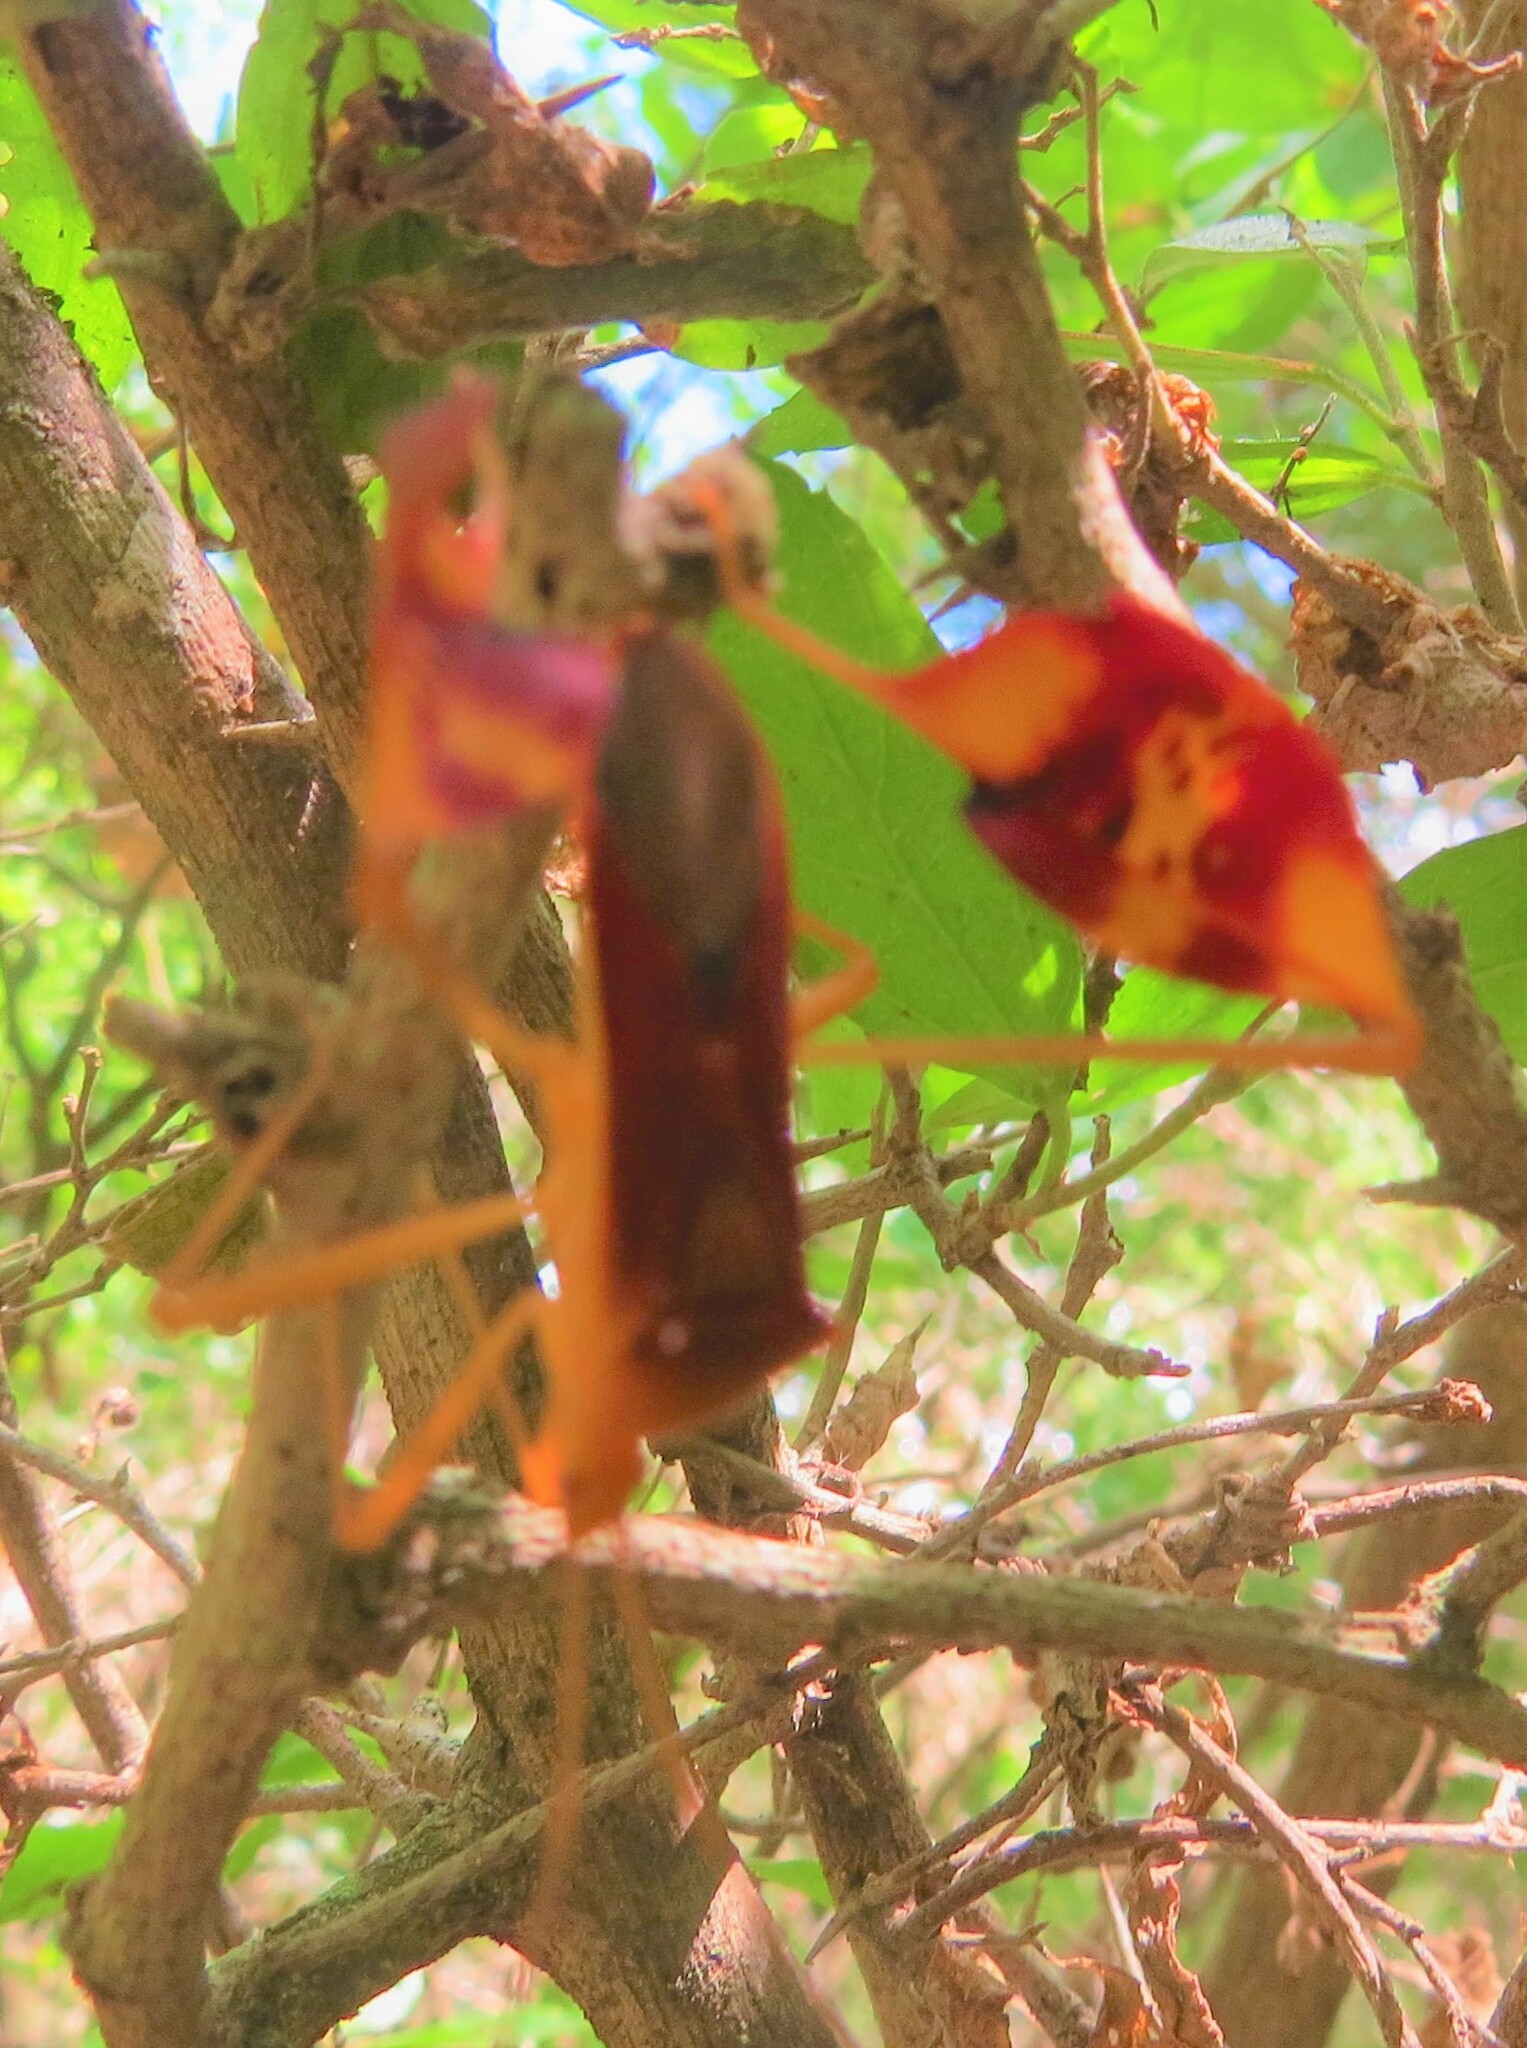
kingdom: Animalia
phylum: Arthropoda
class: Insecta
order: Hemiptera
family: Coreidae
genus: Bitta
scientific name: Bitta
